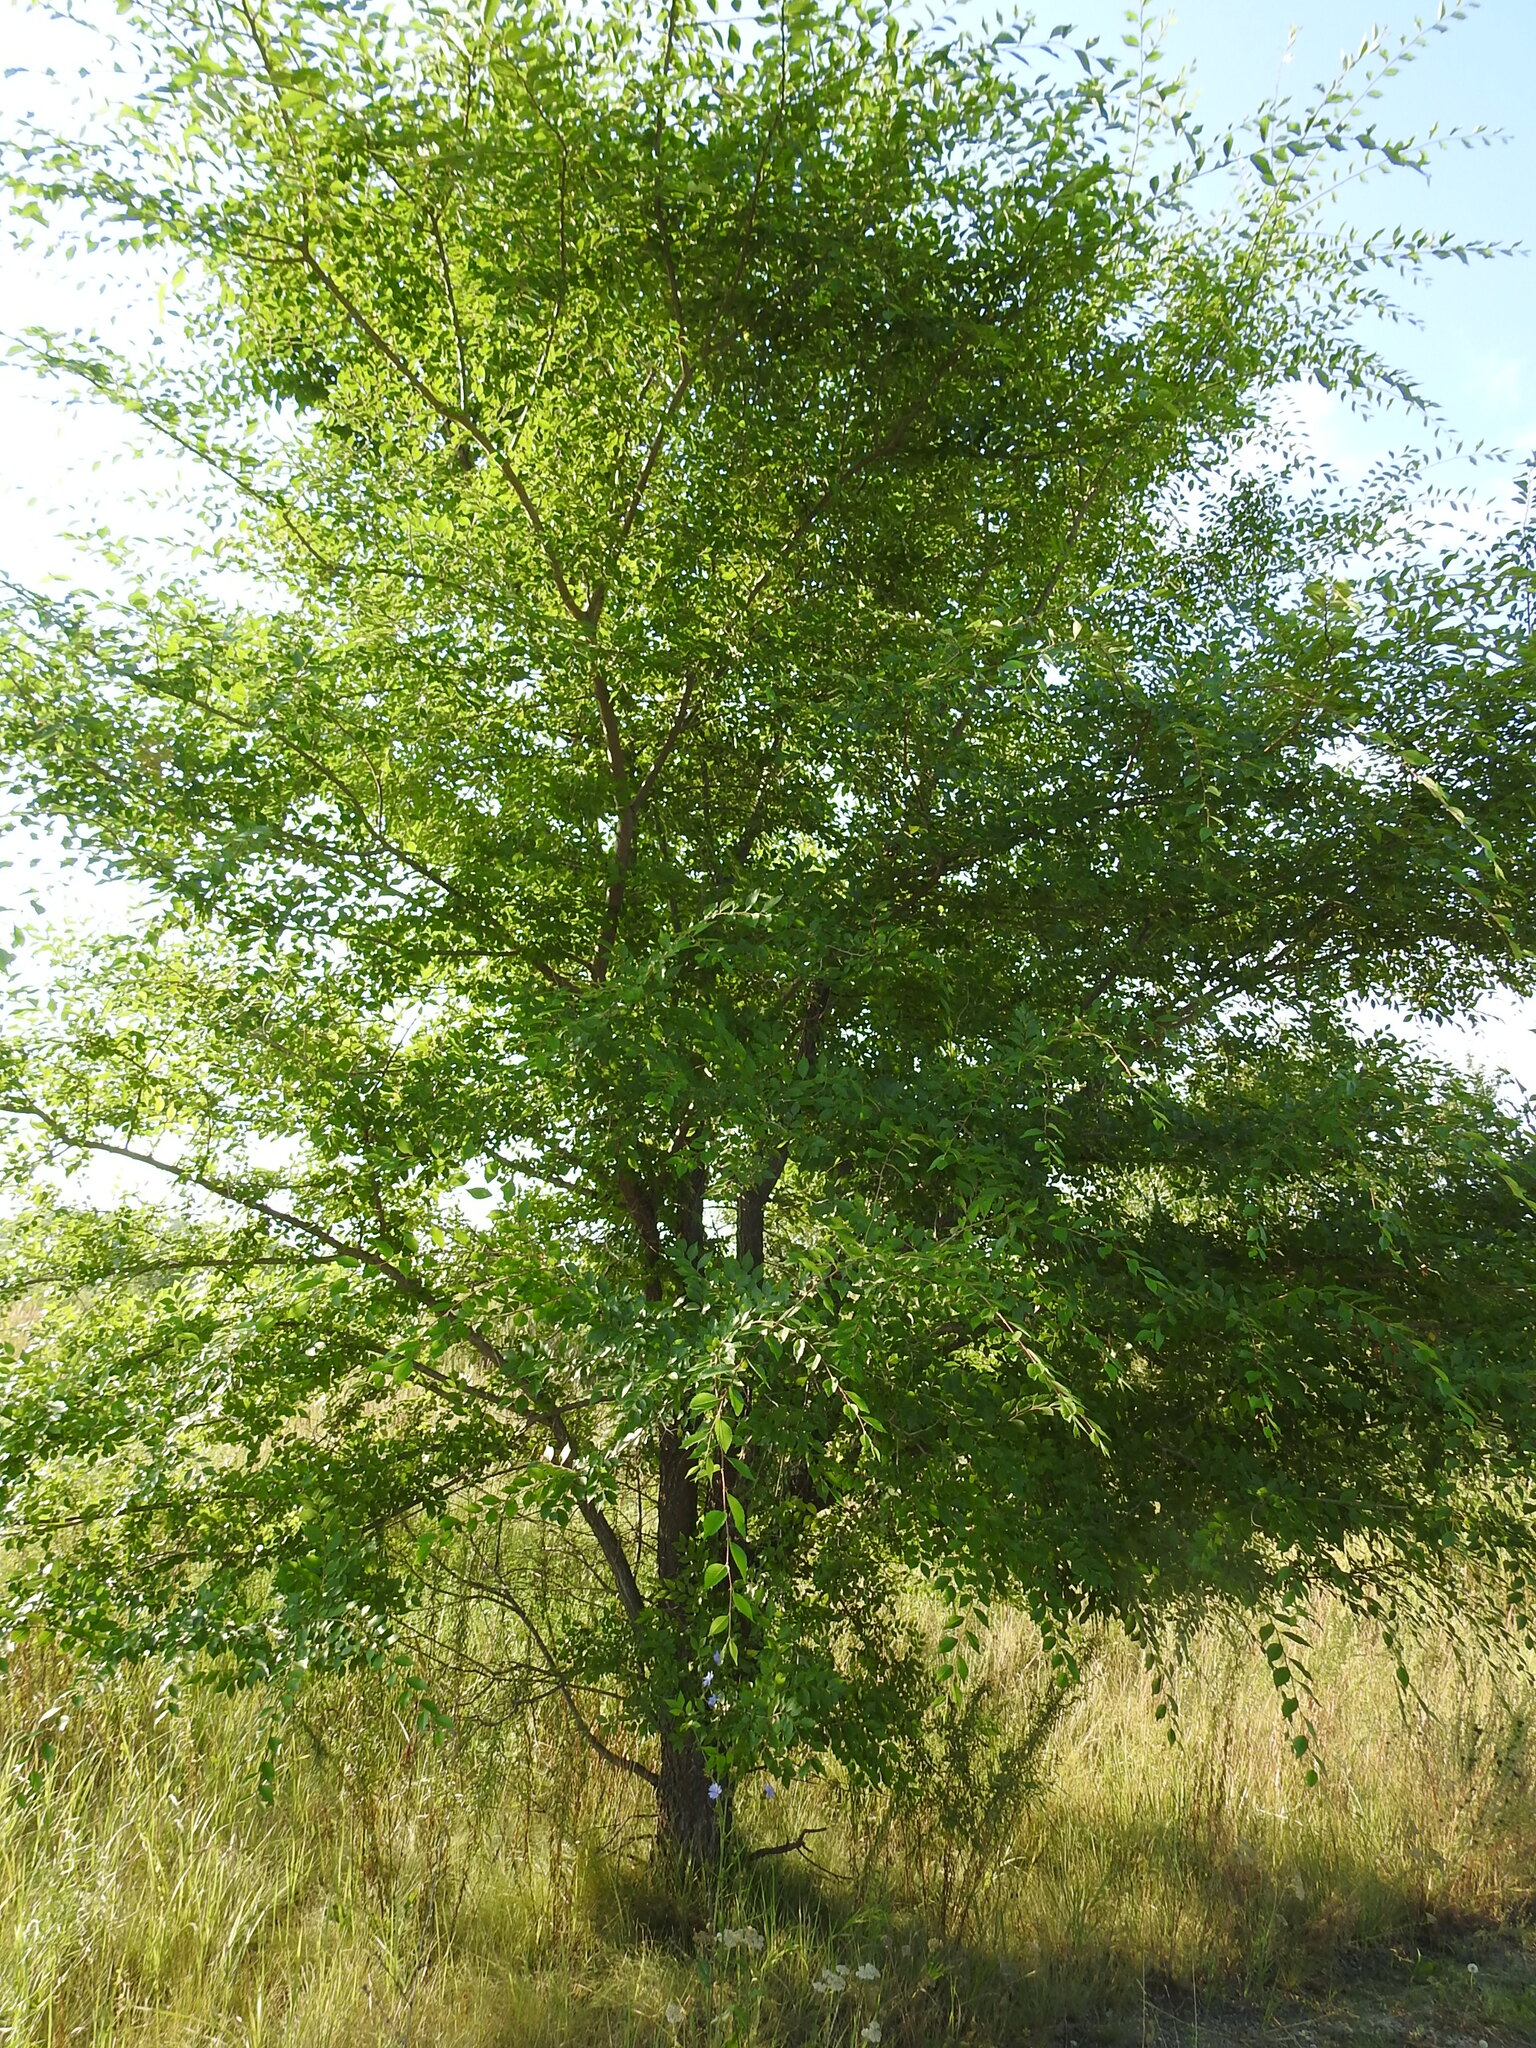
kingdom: Plantae
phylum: Tracheophyta
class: Magnoliopsida
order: Rosales
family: Ulmaceae
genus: Ulmus
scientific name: Ulmus pumila
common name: Siberian elm
